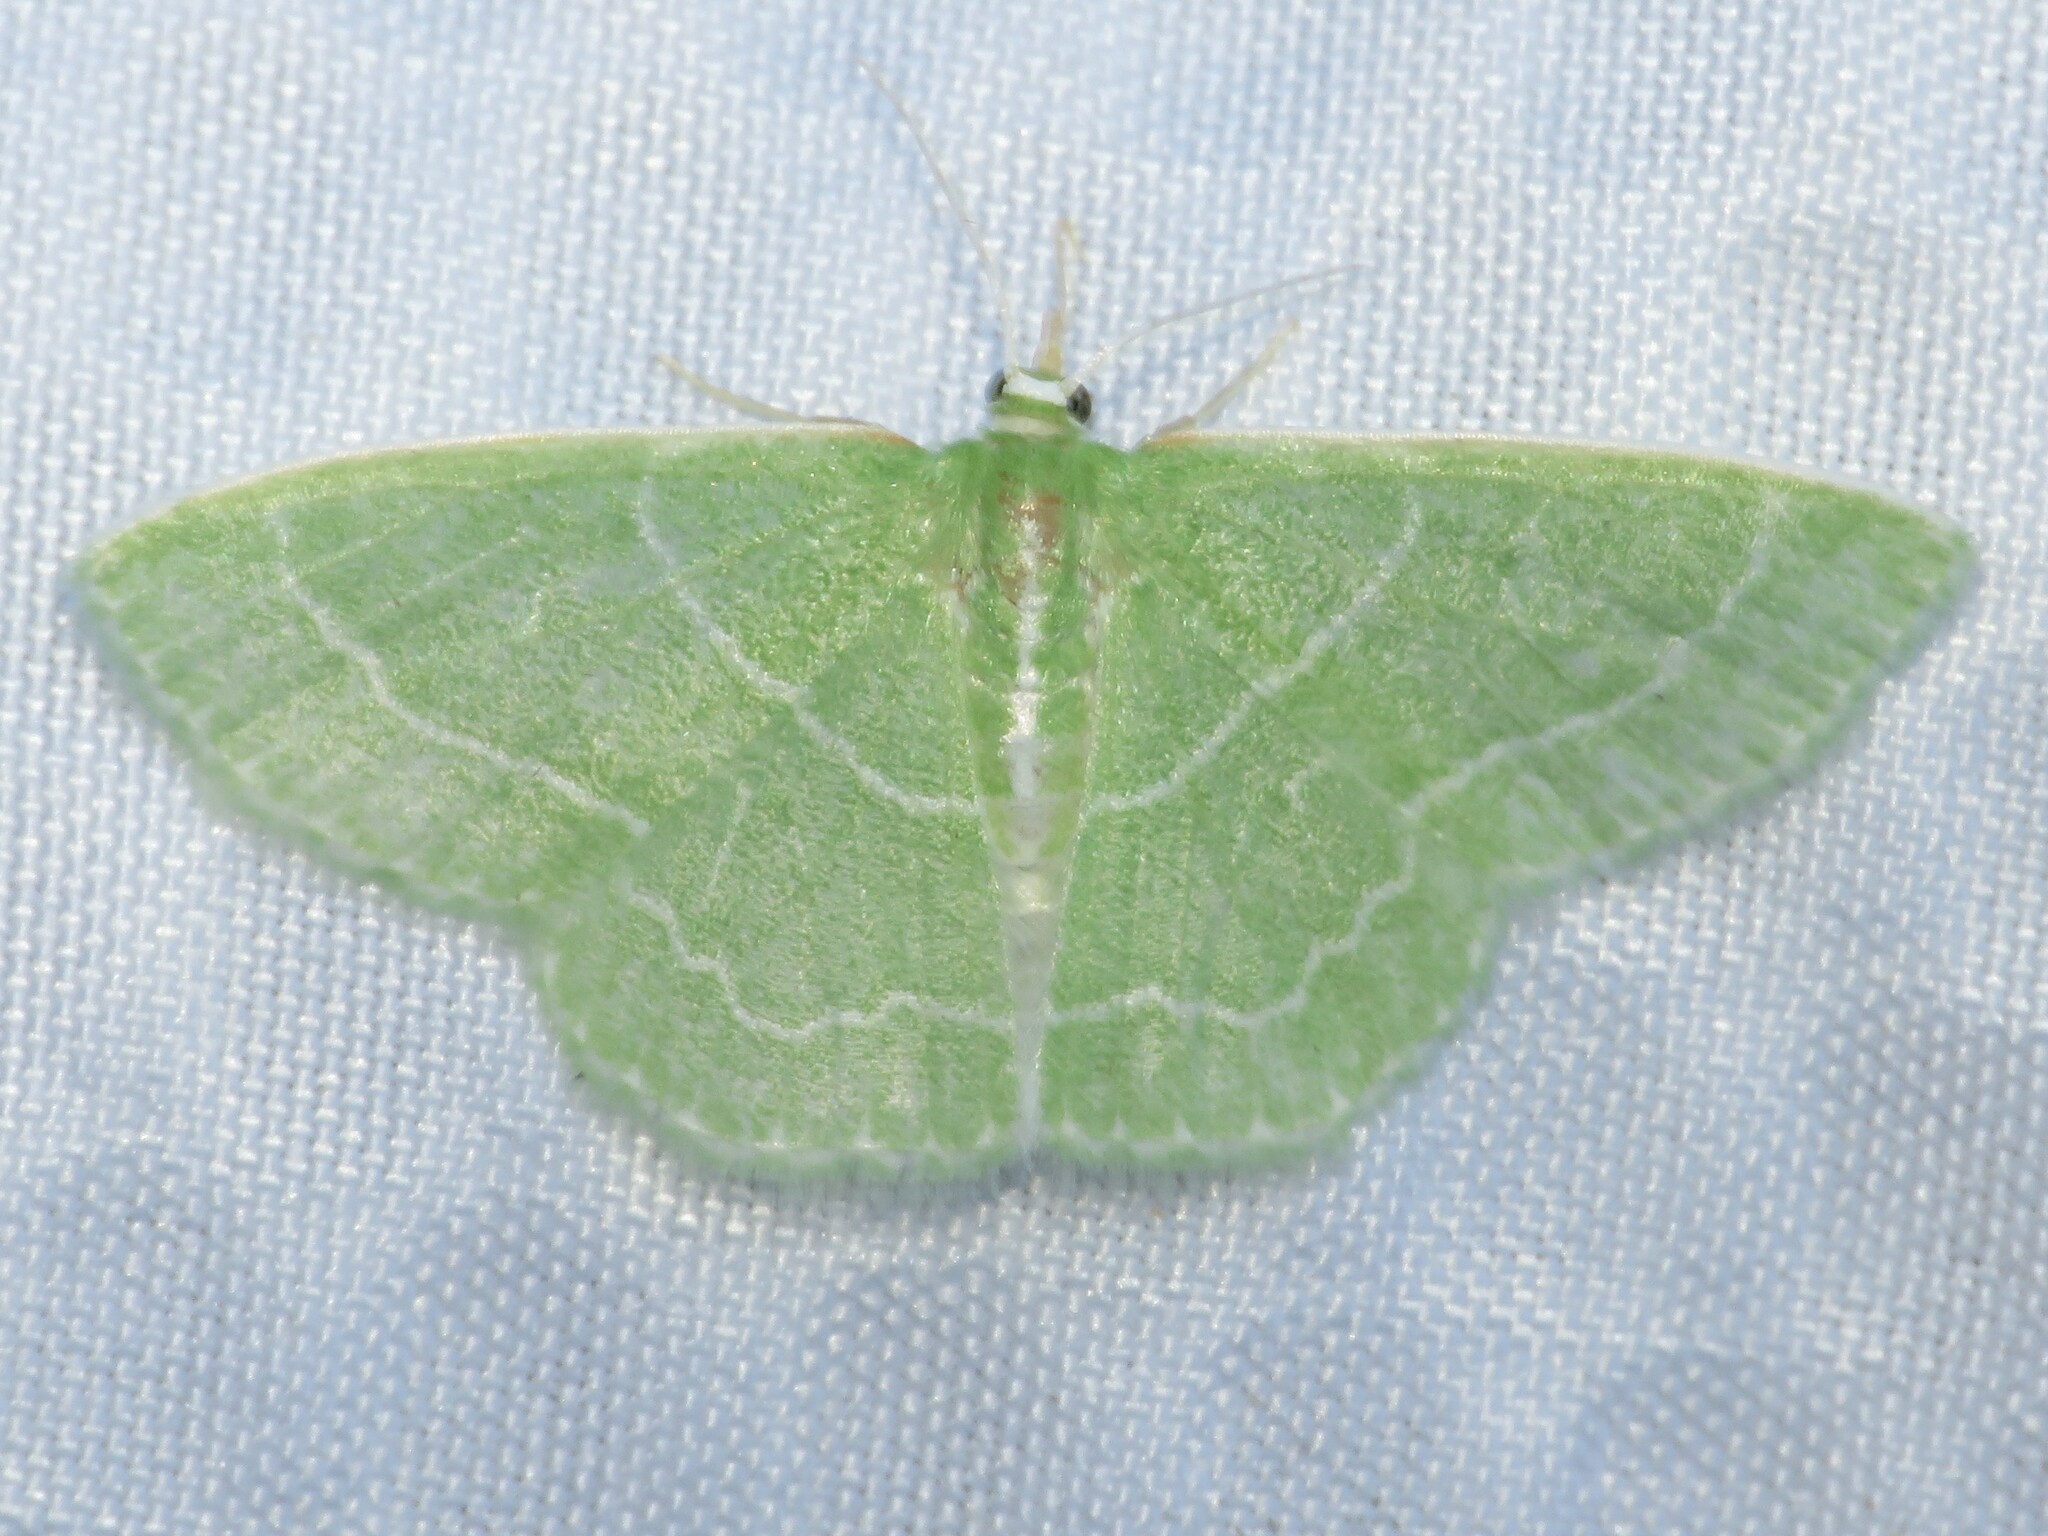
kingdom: Animalia
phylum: Arthropoda
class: Insecta
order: Lepidoptera
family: Geometridae
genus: Synchlora
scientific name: Synchlora aerata
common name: Wavy-lined emerald
